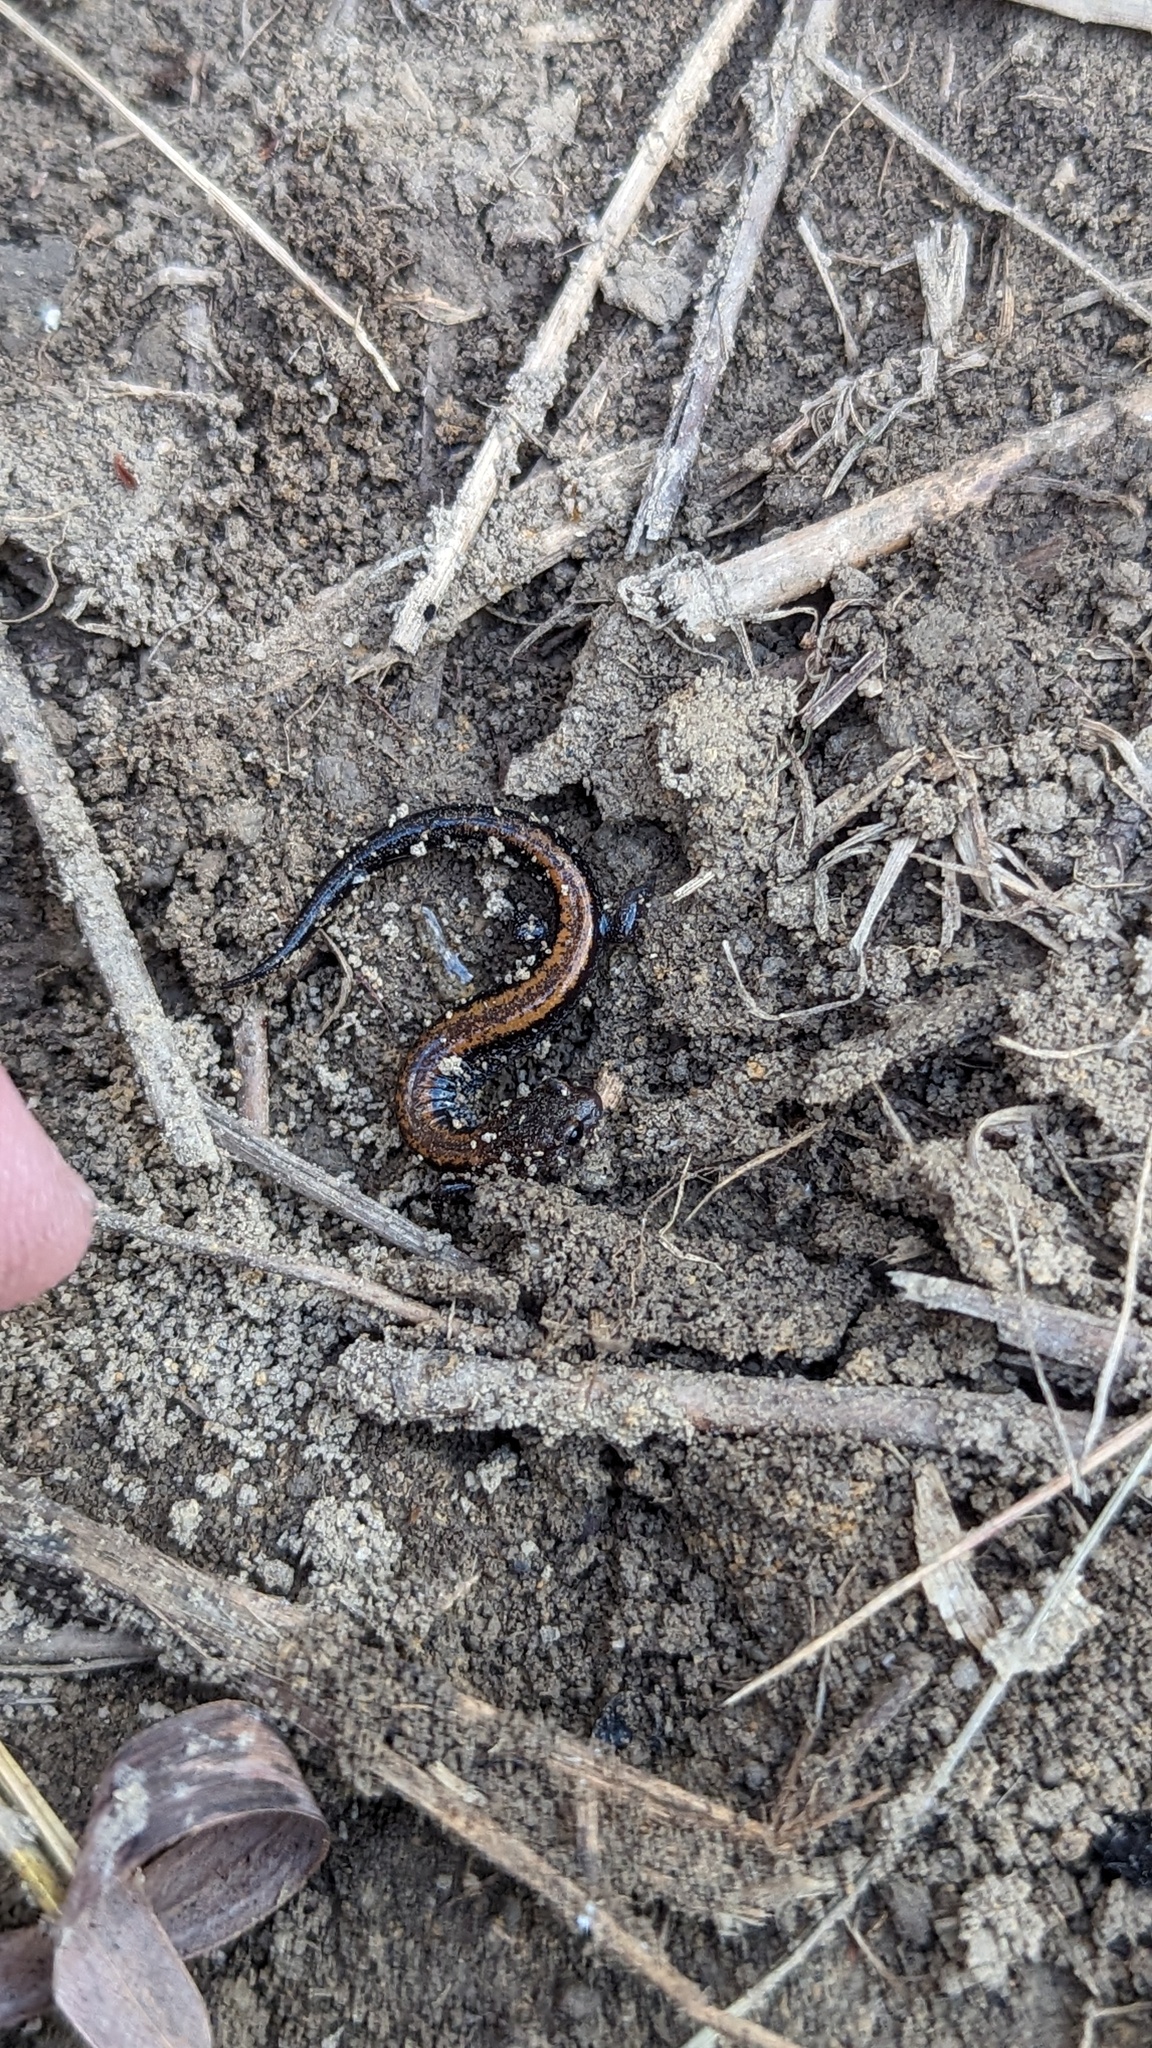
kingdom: Animalia
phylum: Chordata
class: Amphibia
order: Caudata
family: Plethodontidae
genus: Plethodon
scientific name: Plethodon cinereus
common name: Redback salamander
